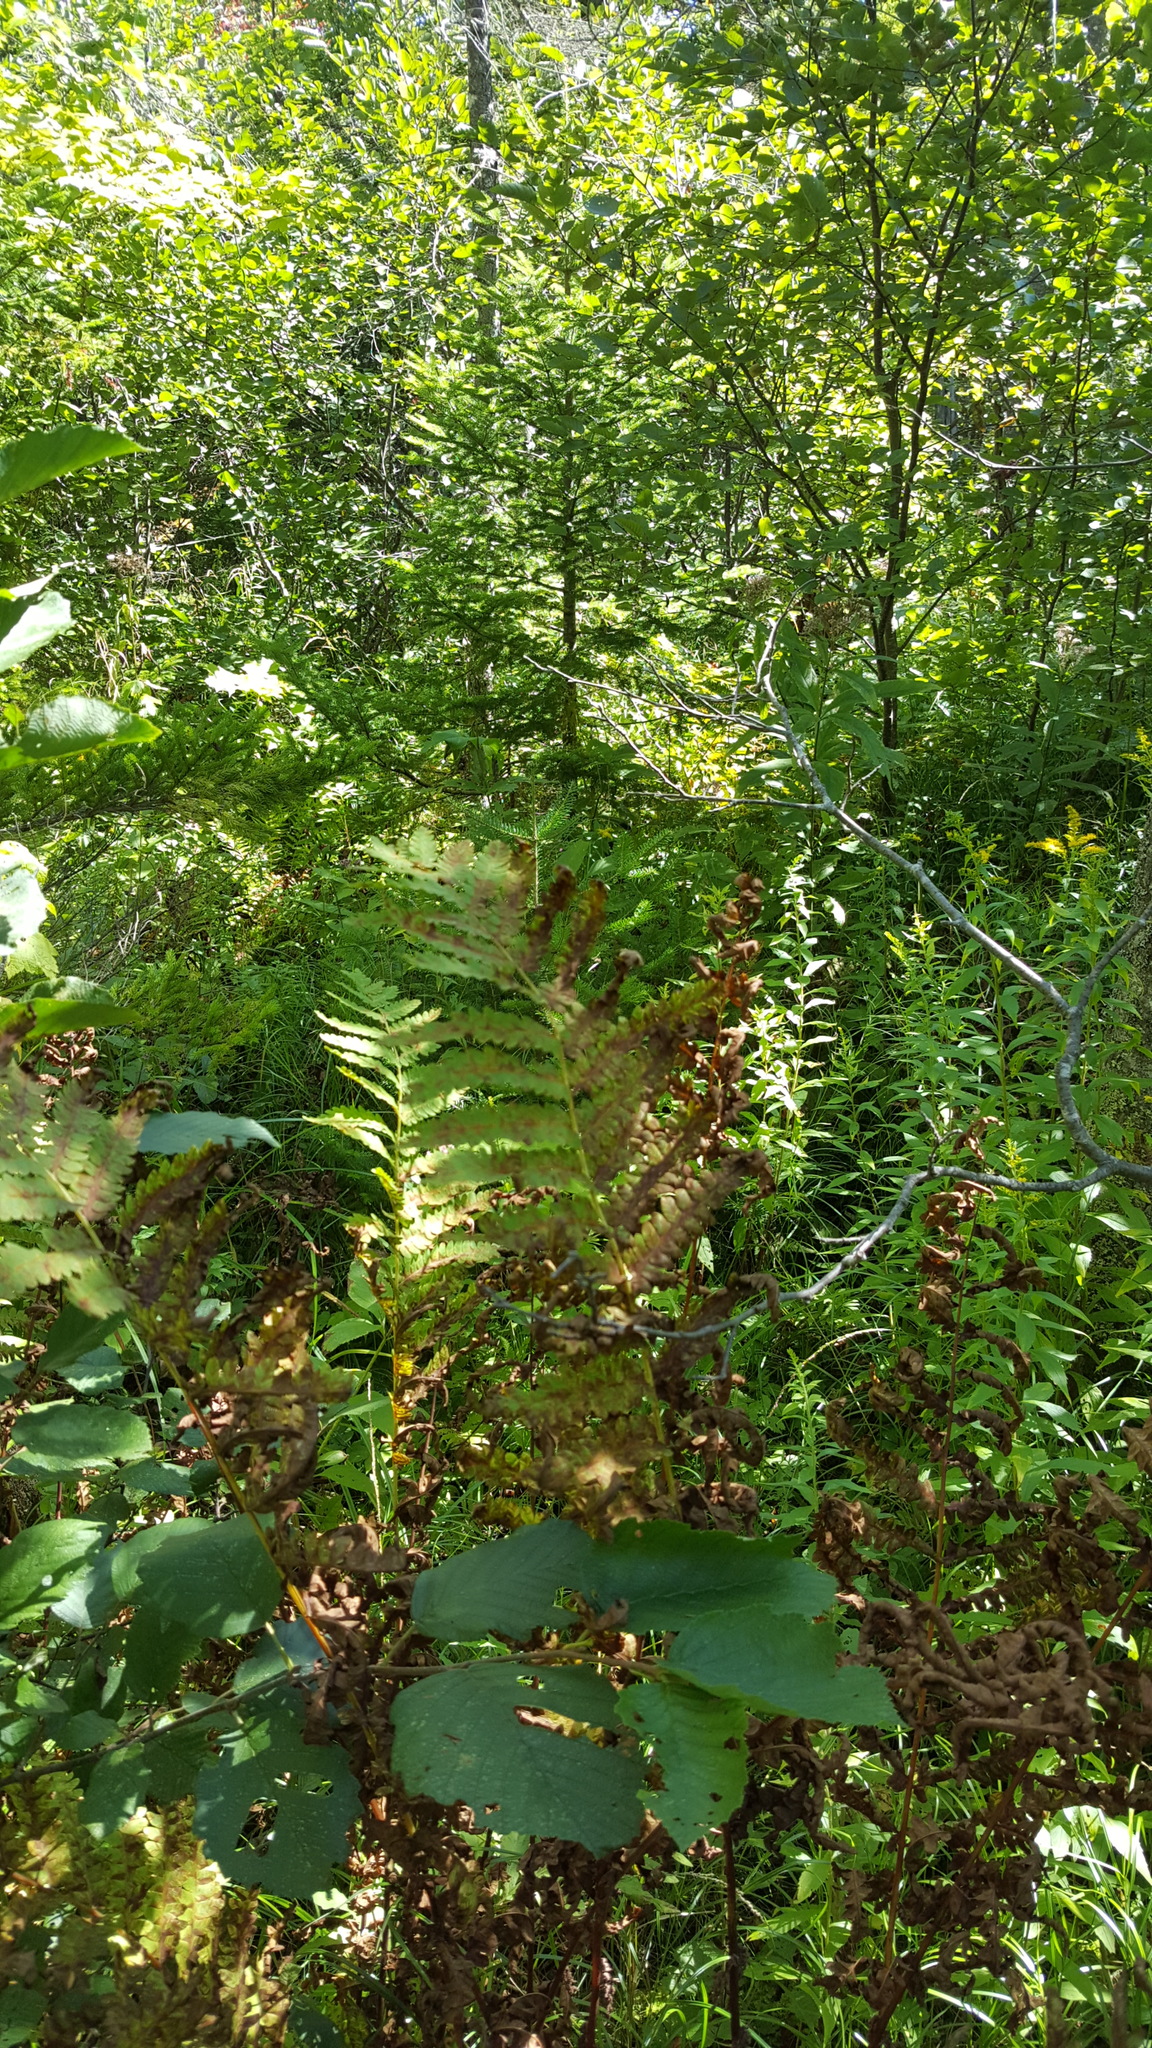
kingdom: Plantae
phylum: Tracheophyta
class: Polypodiopsida
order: Osmundales
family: Osmundaceae
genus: Claytosmunda
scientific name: Claytosmunda claytoniana
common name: Clayton's fern
